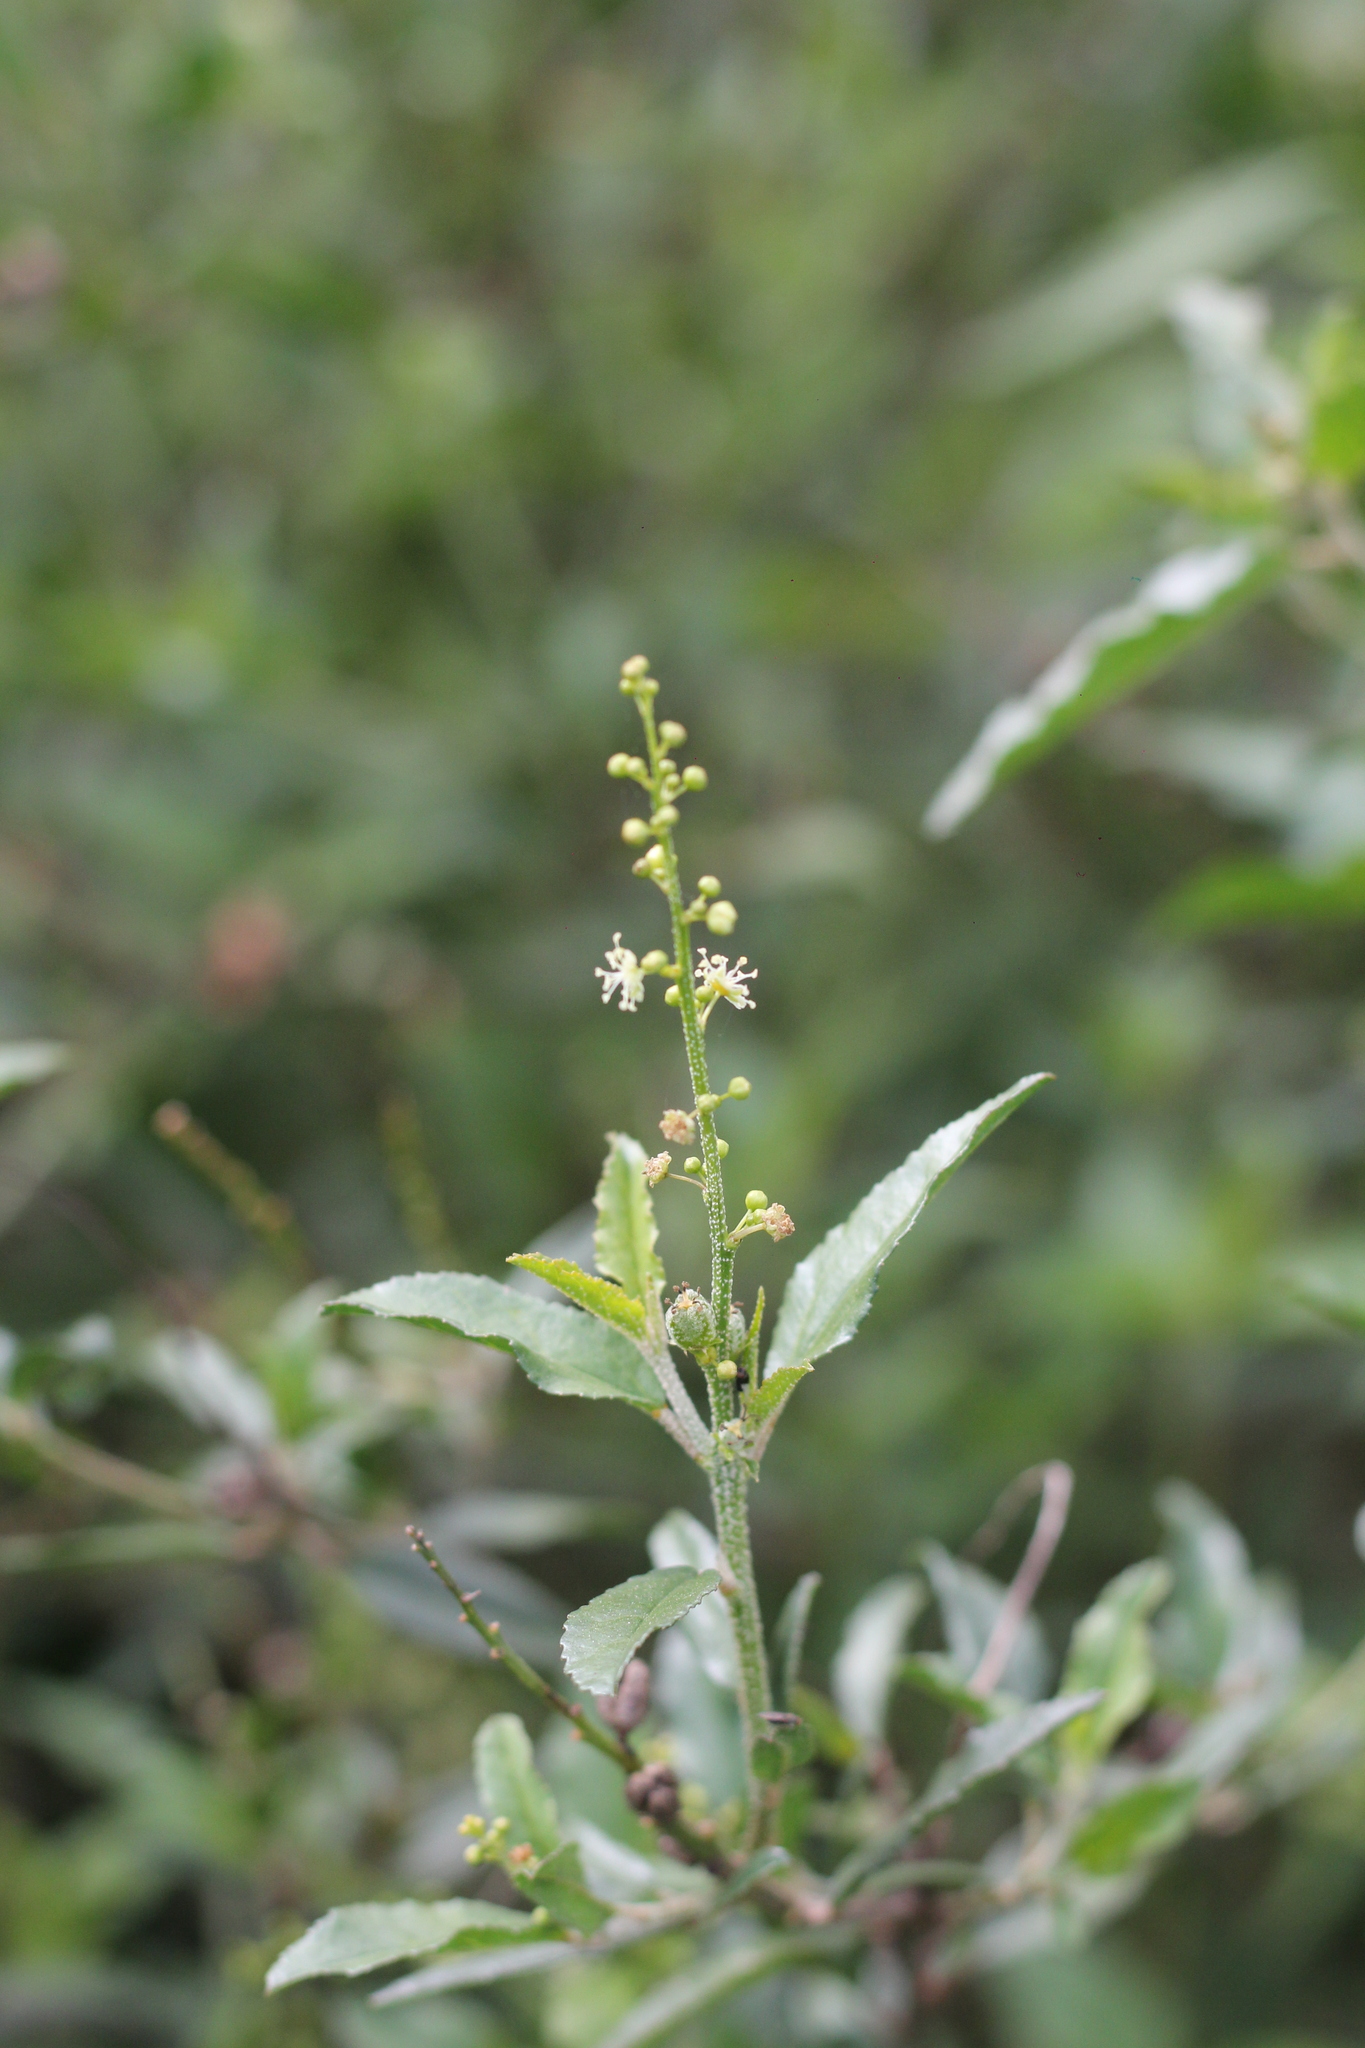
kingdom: Plantae
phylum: Tracheophyta
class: Magnoliopsida
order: Malpighiales
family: Euphorbiaceae
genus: Croton
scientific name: Croton bonplandianus
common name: Bonpland's croton
